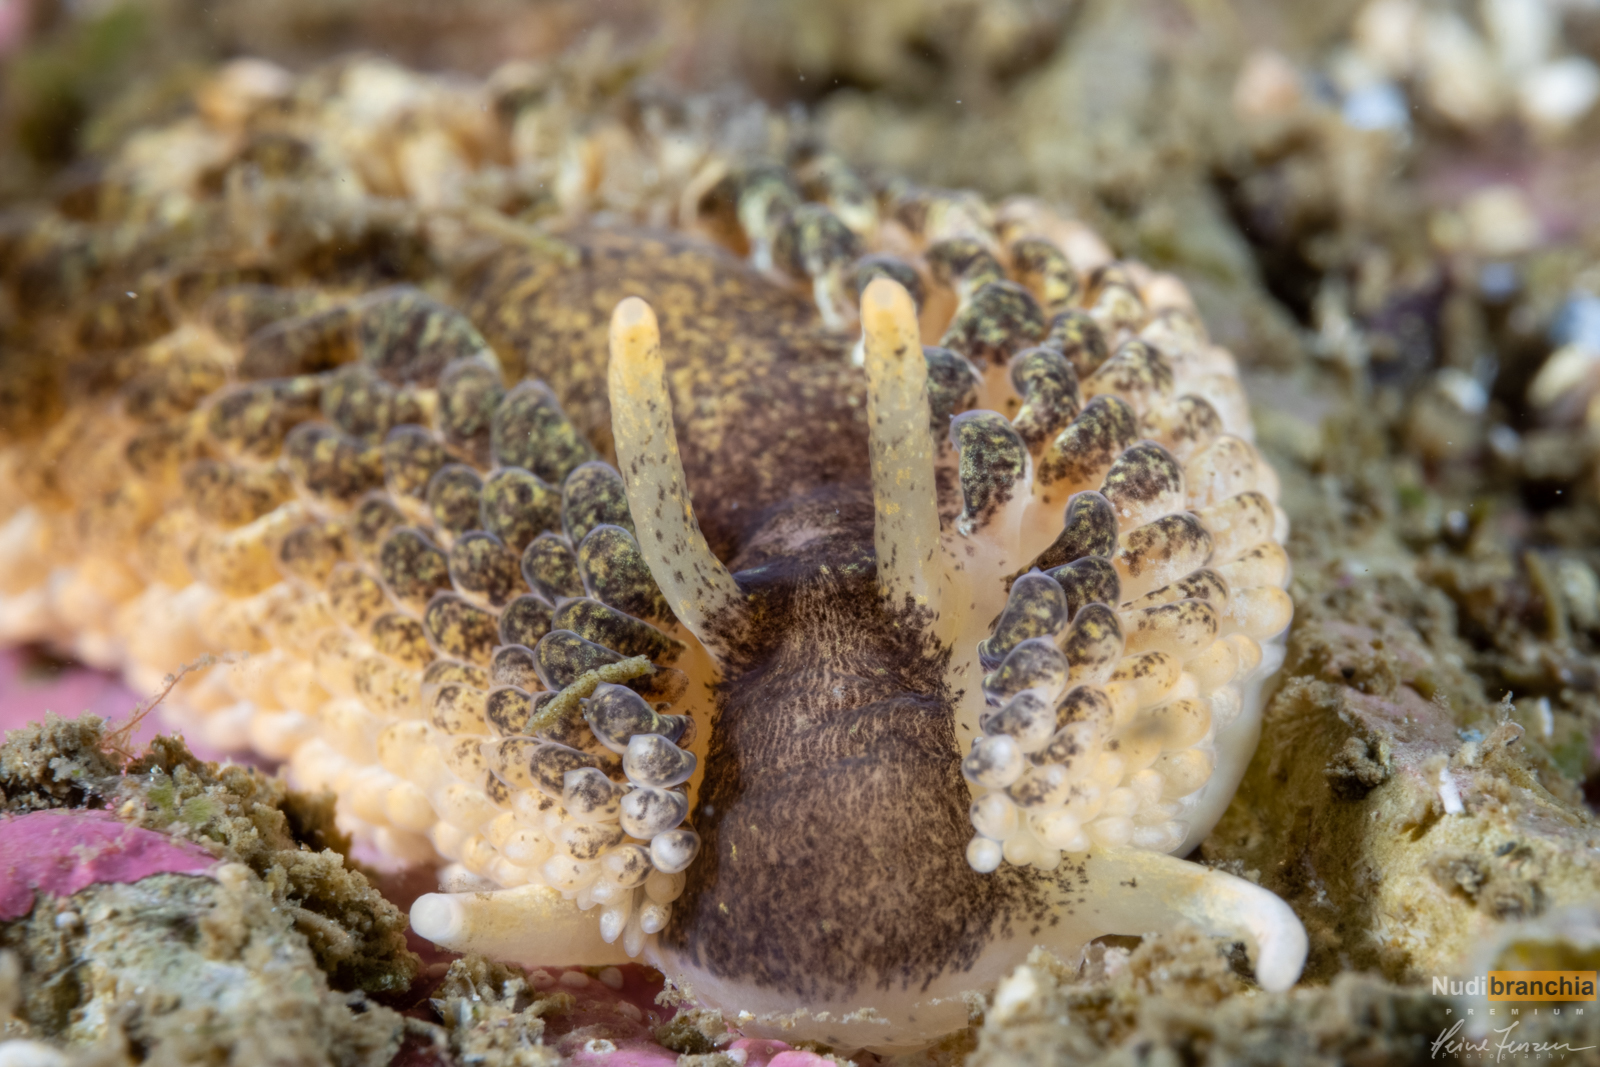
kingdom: Animalia
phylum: Mollusca
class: Gastropoda
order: Nudibranchia
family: Aeolidiidae
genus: Aeolidia
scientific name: Aeolidia papillosa
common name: Common grey sea slug
